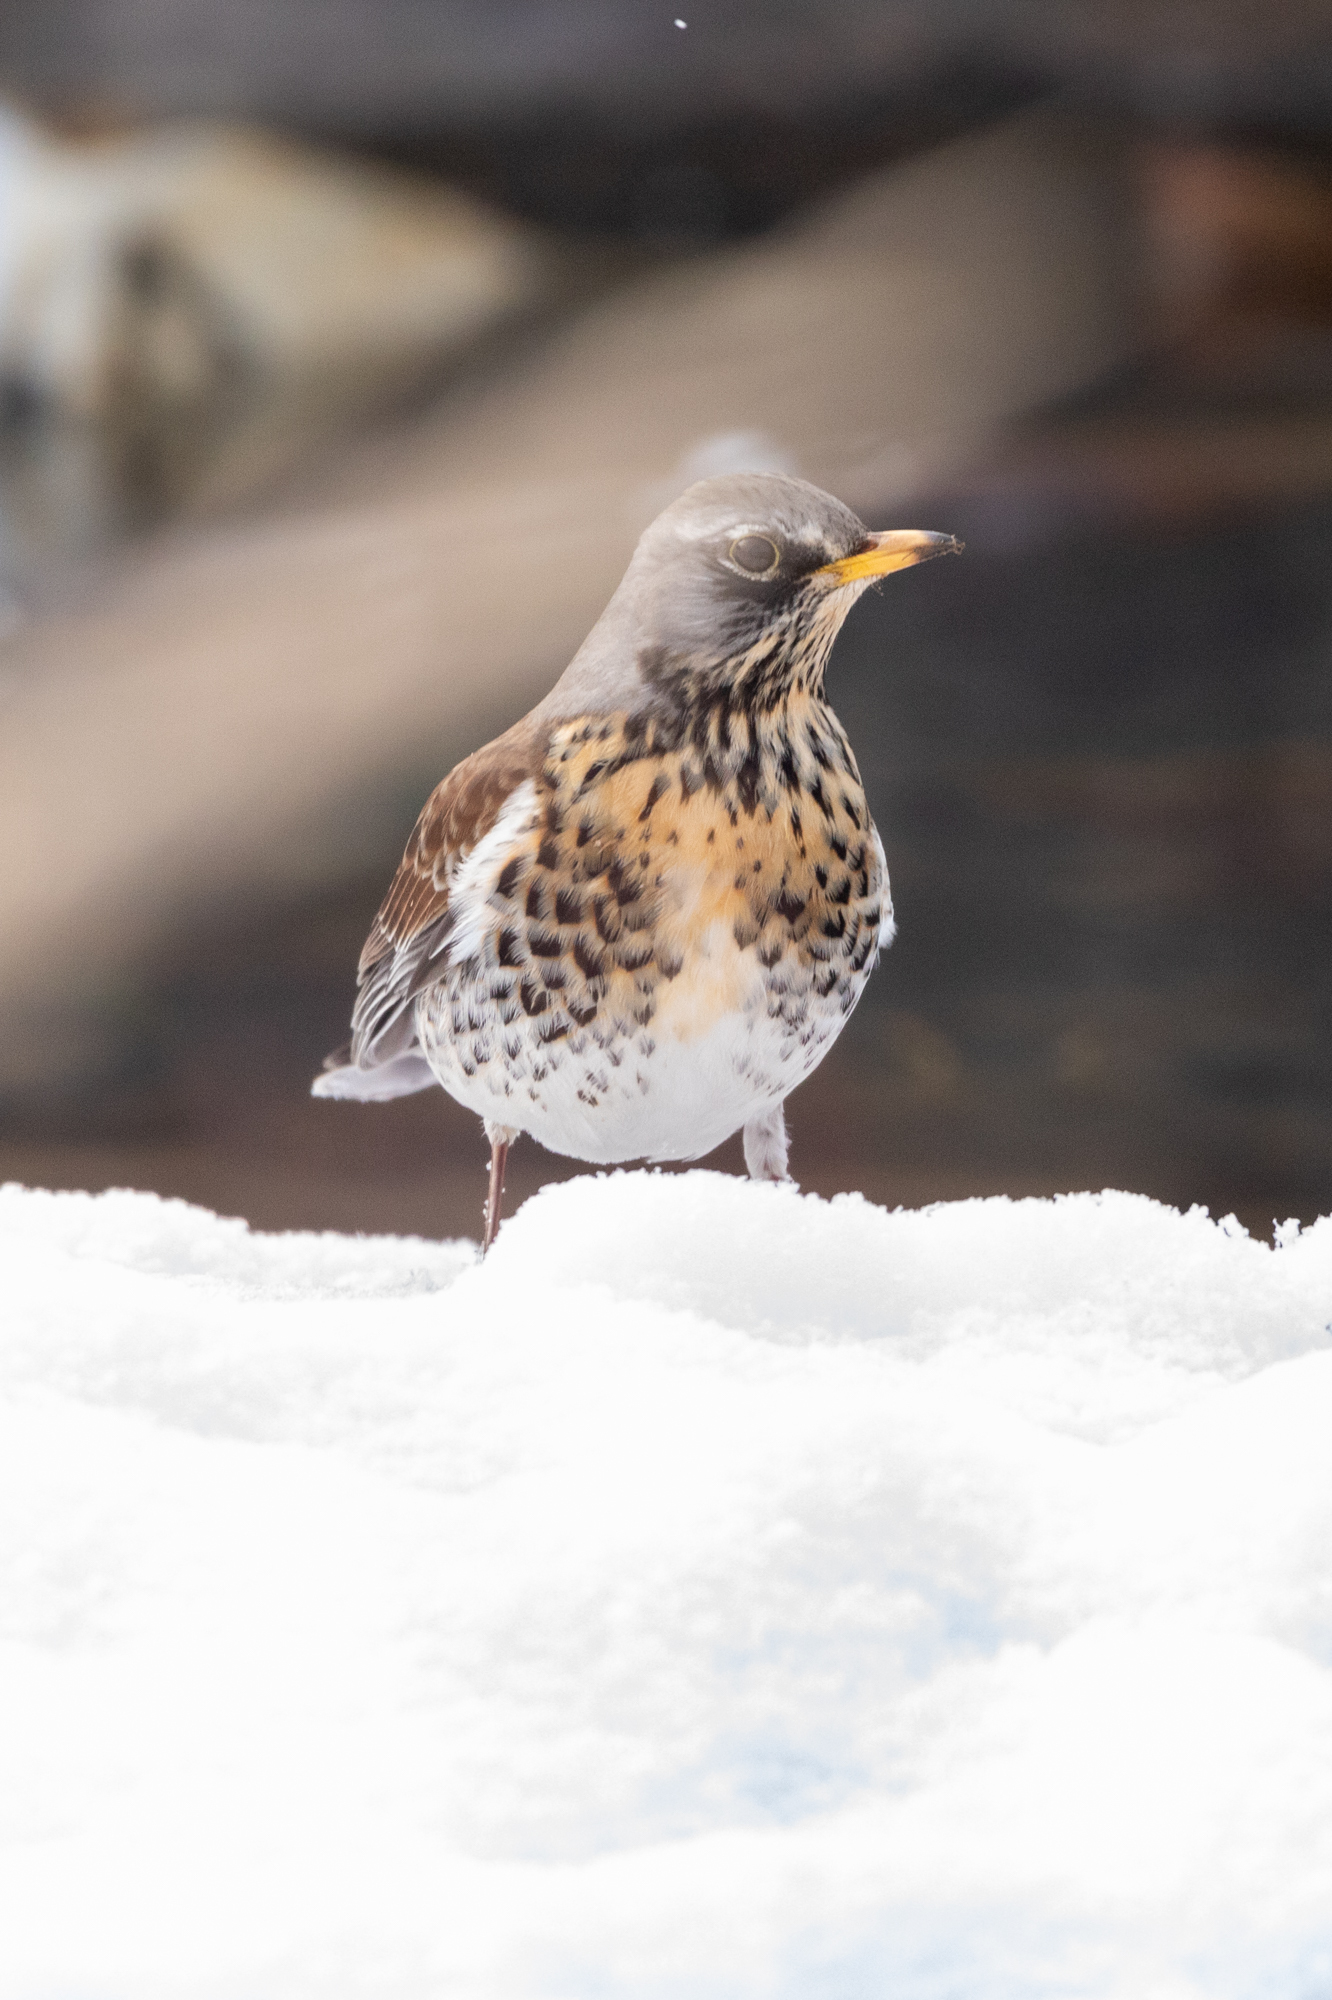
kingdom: Animalia
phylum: Chordata
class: Aves
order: Passeriformes
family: Turdidae
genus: Turdus
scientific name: Turdus pilaris
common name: Fieldfare
